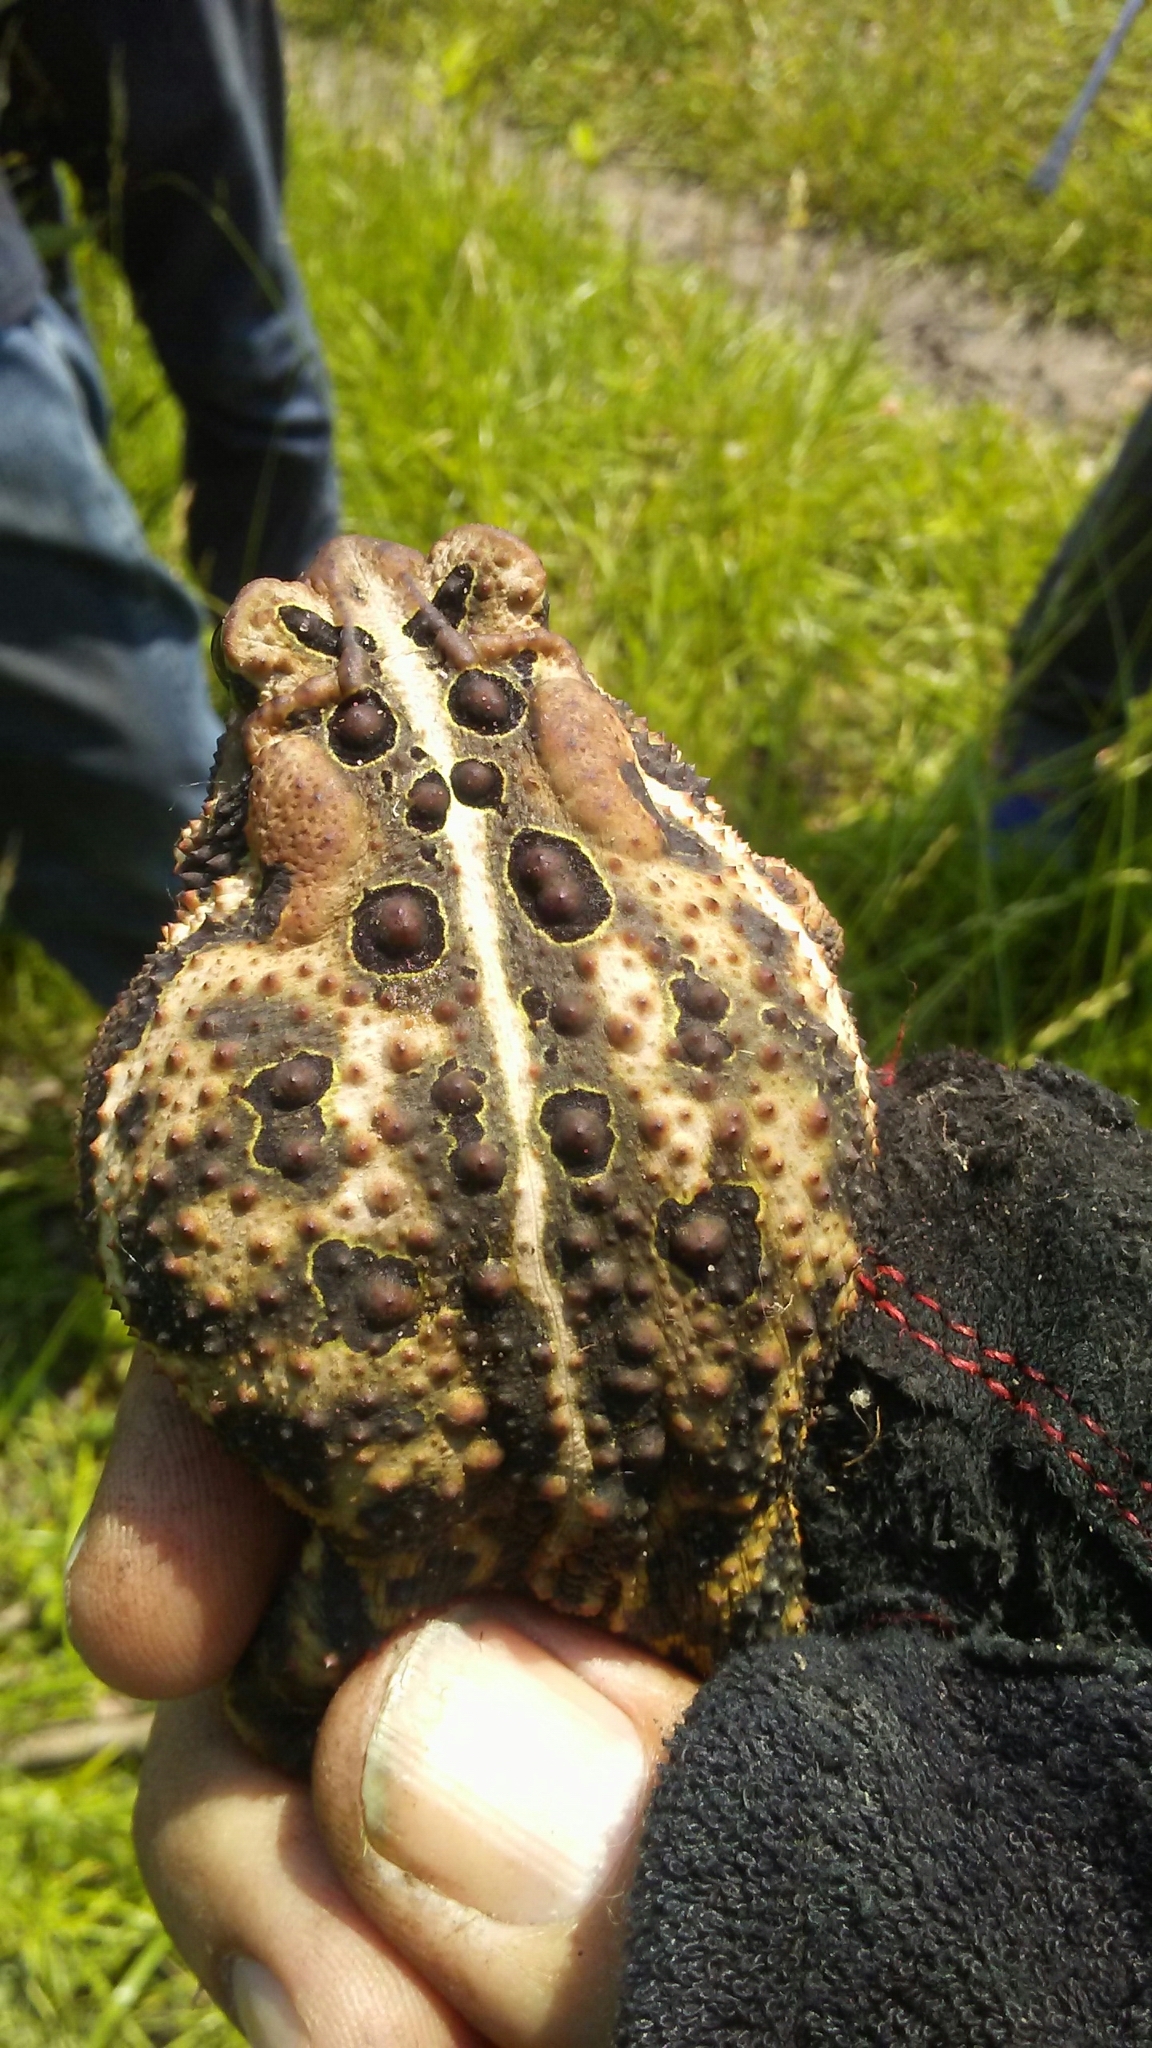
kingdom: Animalia
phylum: Chordata
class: Amphibia
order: Anura
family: Bufonidae
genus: Anaxyrus
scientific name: Anaxyrus americanus
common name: American toad
